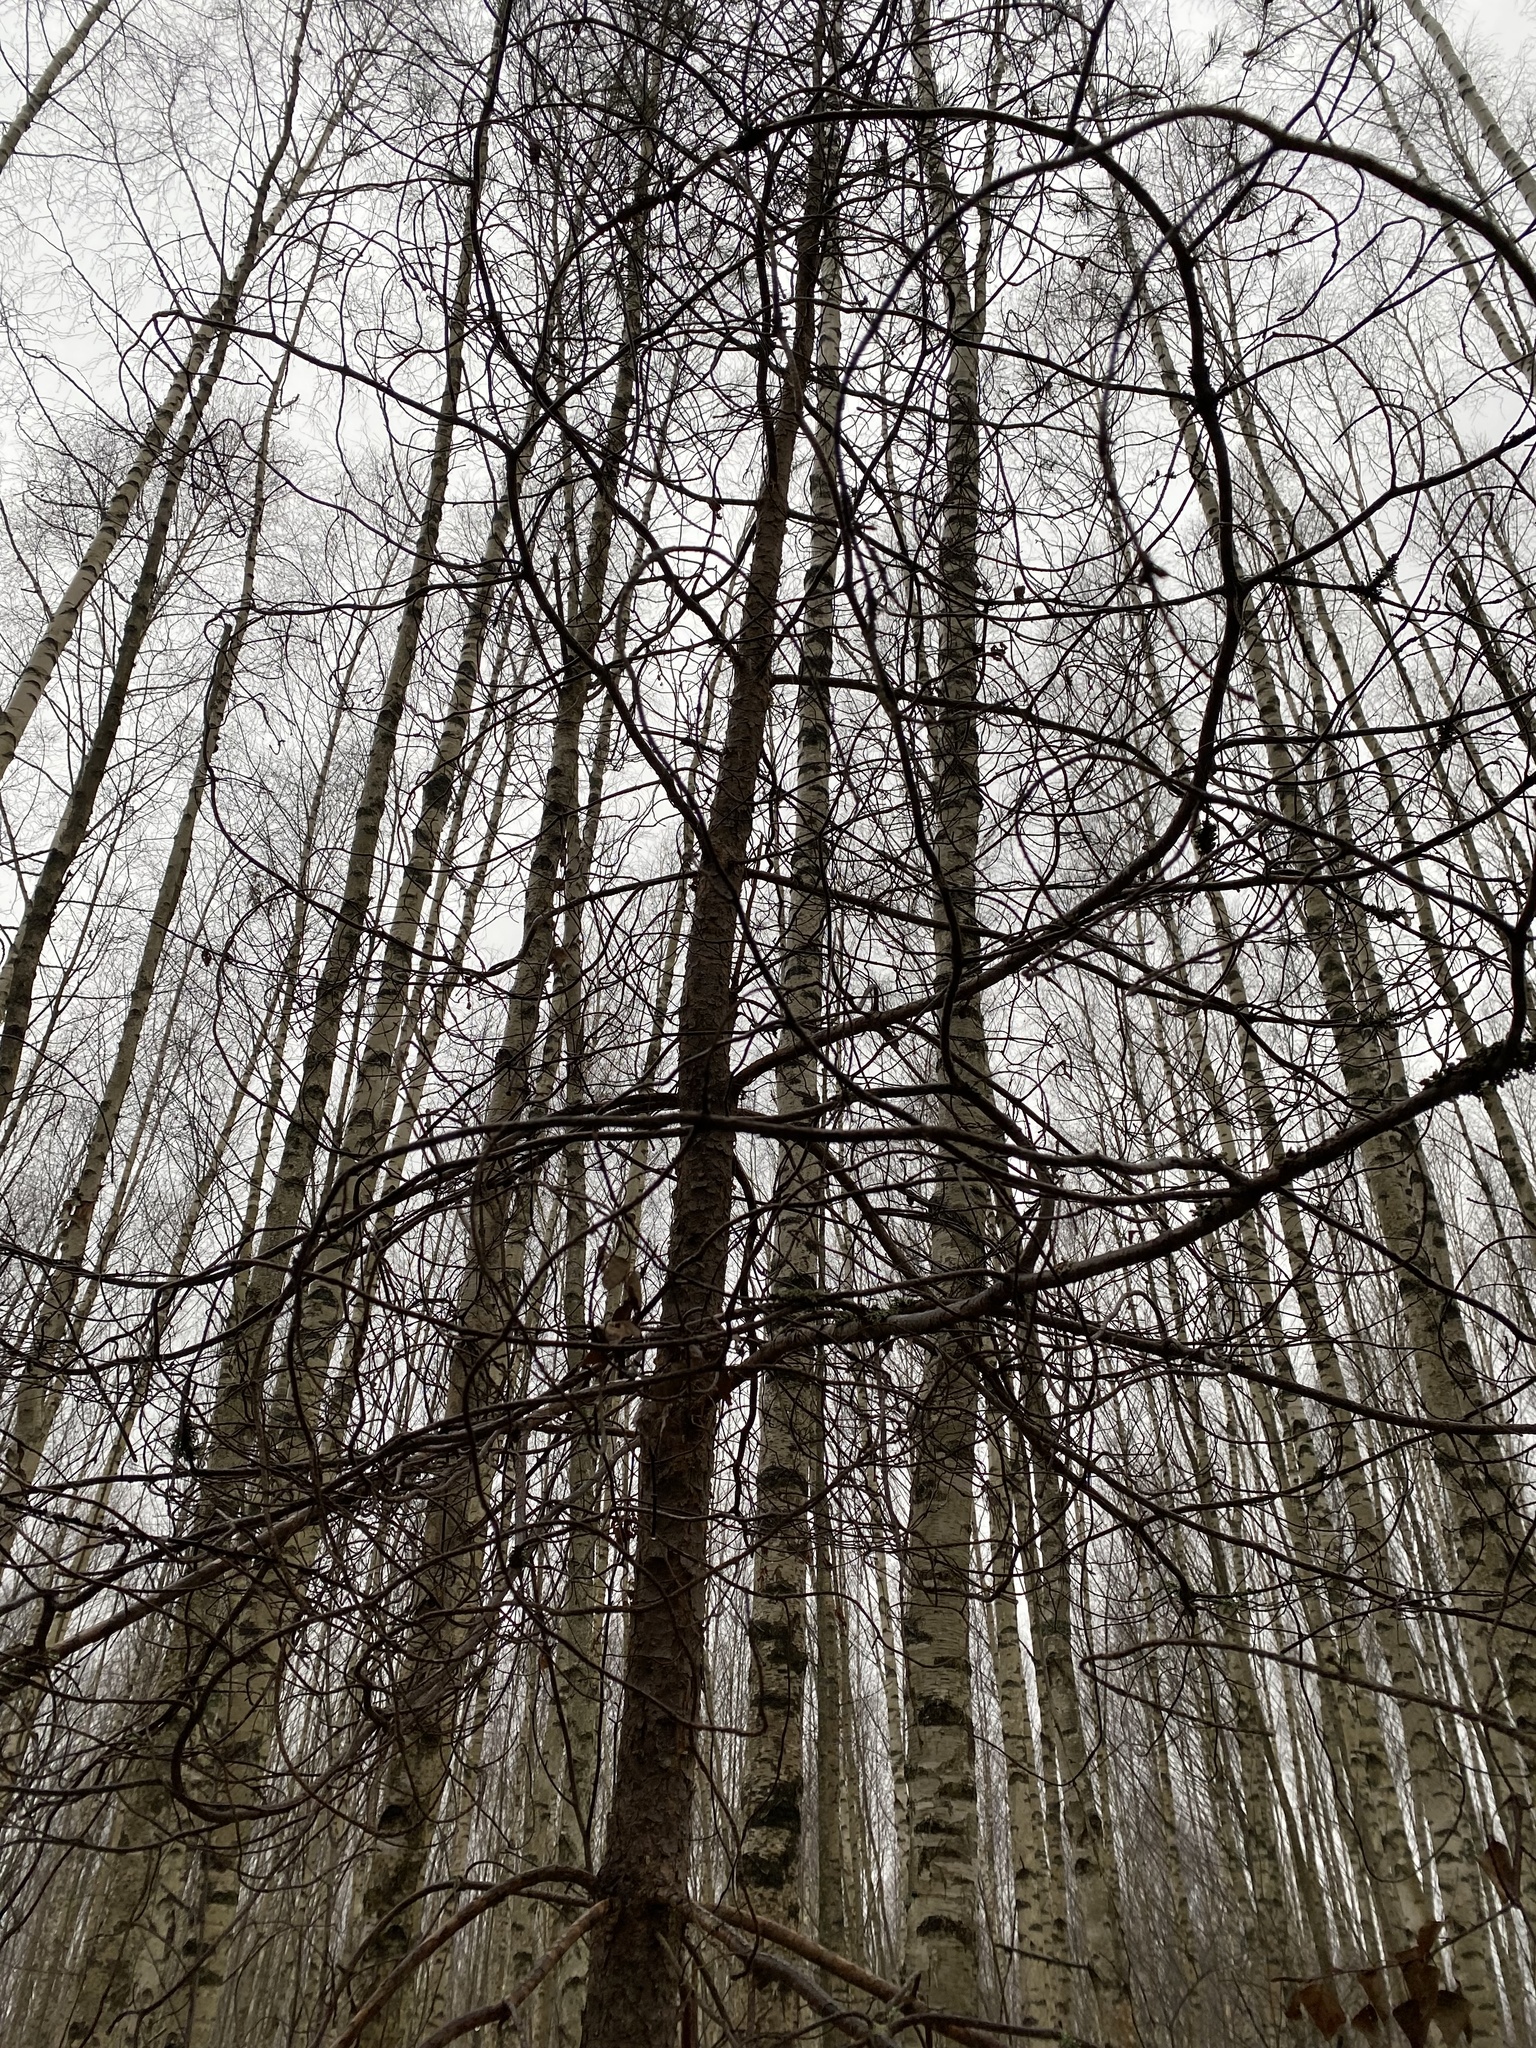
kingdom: Plantae
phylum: Tracheophyta
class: Magnoliopsida
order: Malpighiales
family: Salicaceae
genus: Populus
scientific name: Populus tremula
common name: European aspen
